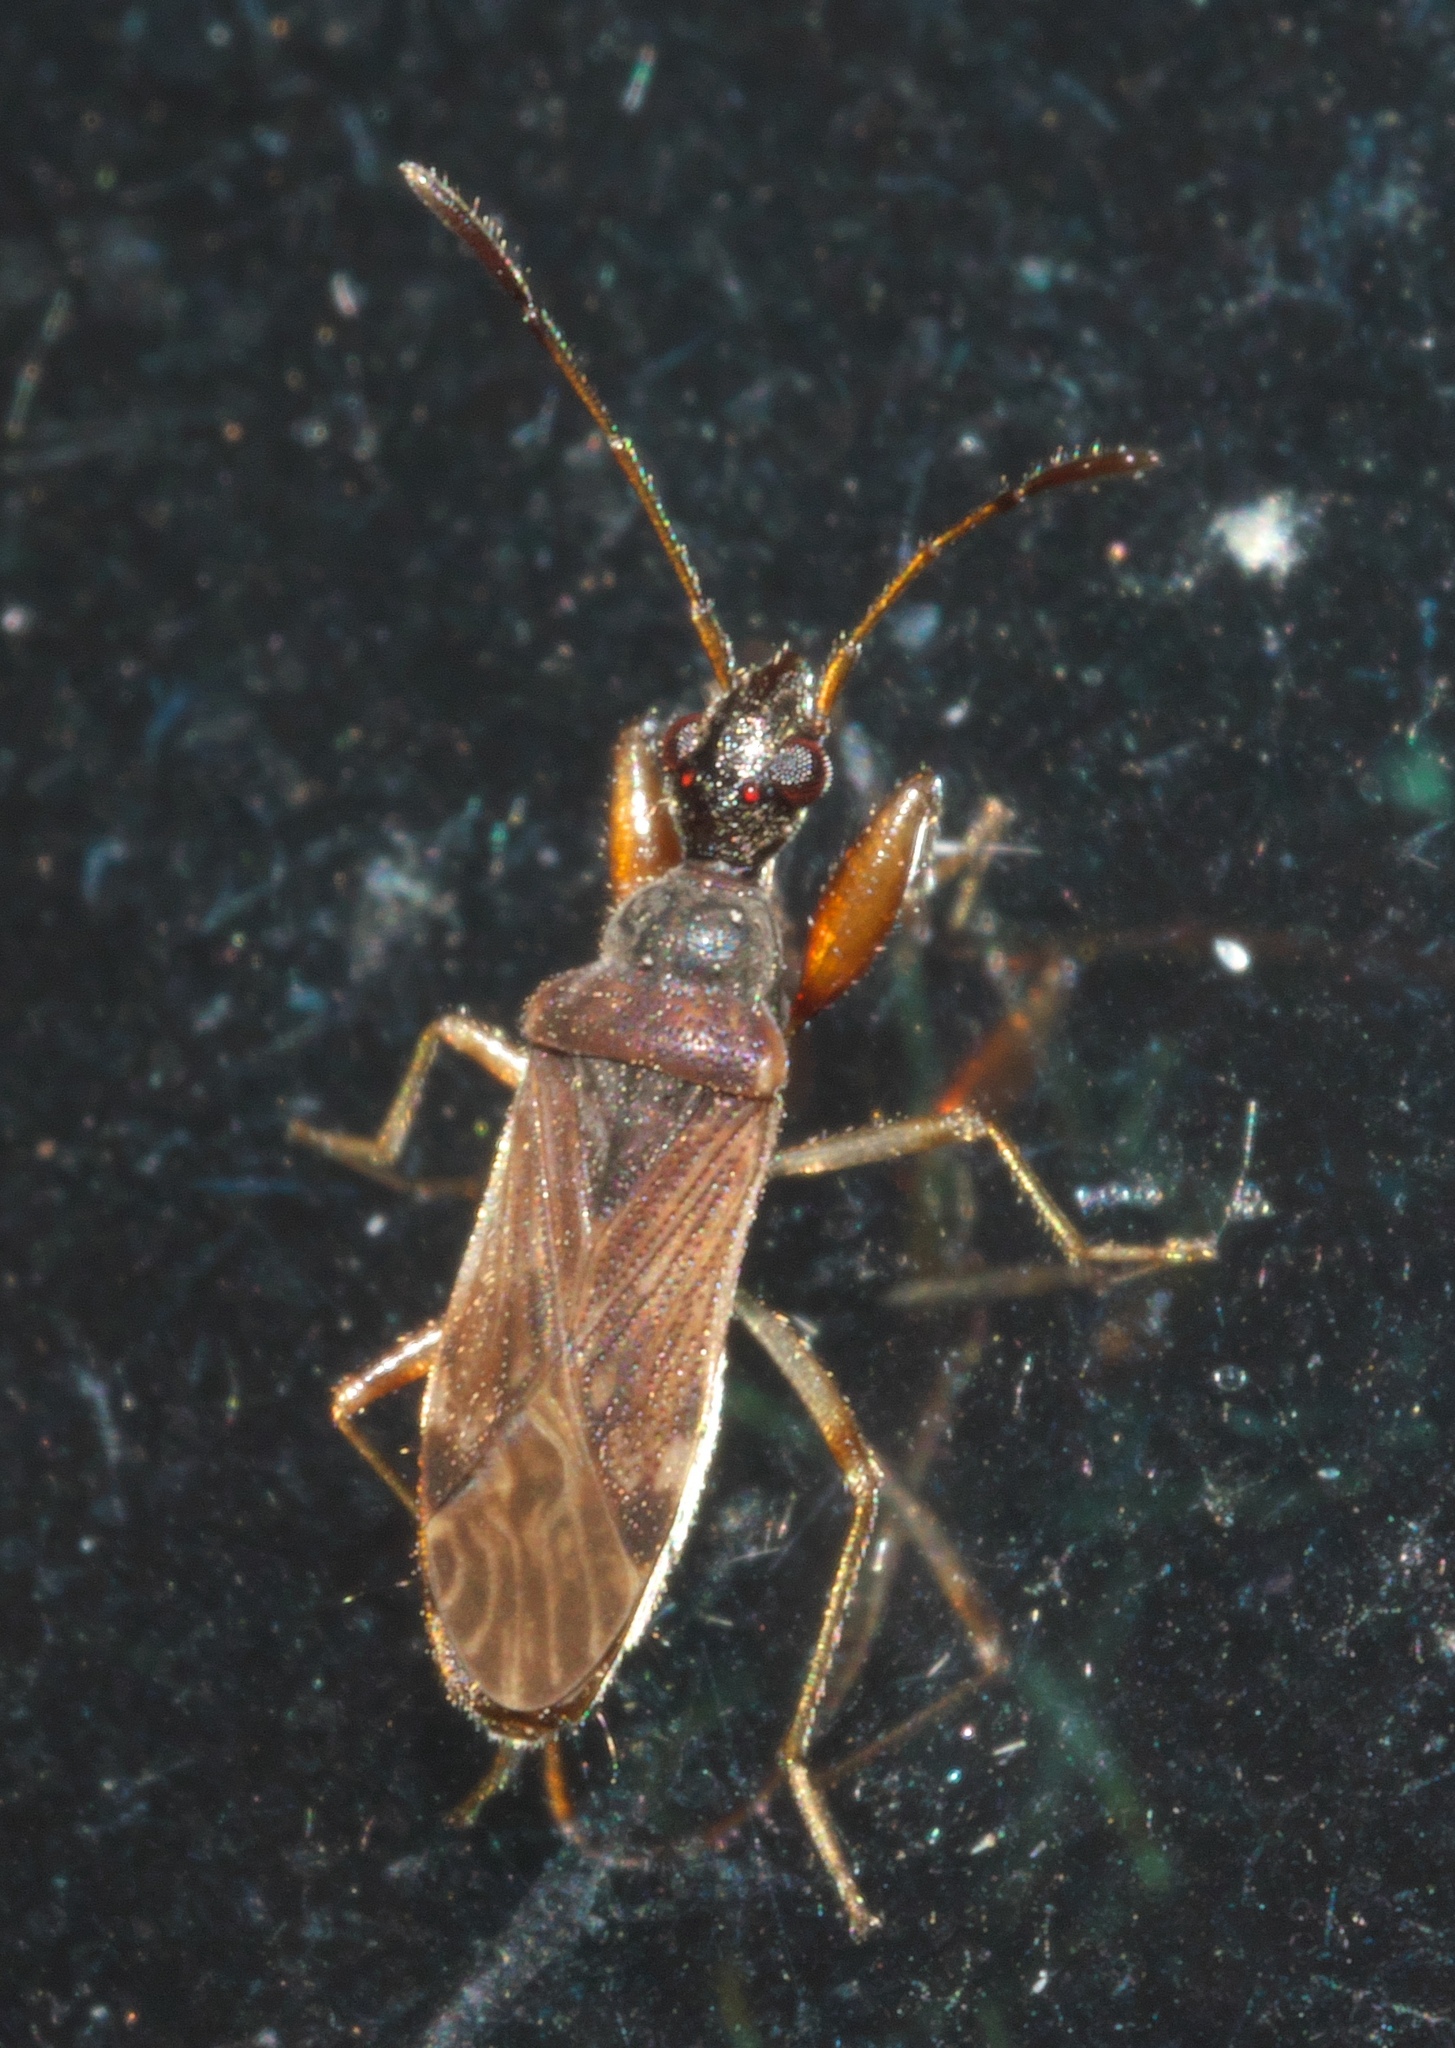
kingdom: Animalia
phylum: Arthropoda
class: Insecta
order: Hemiptera
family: Rhyparochromidae
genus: Heraeus
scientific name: Heraeus plebejus
